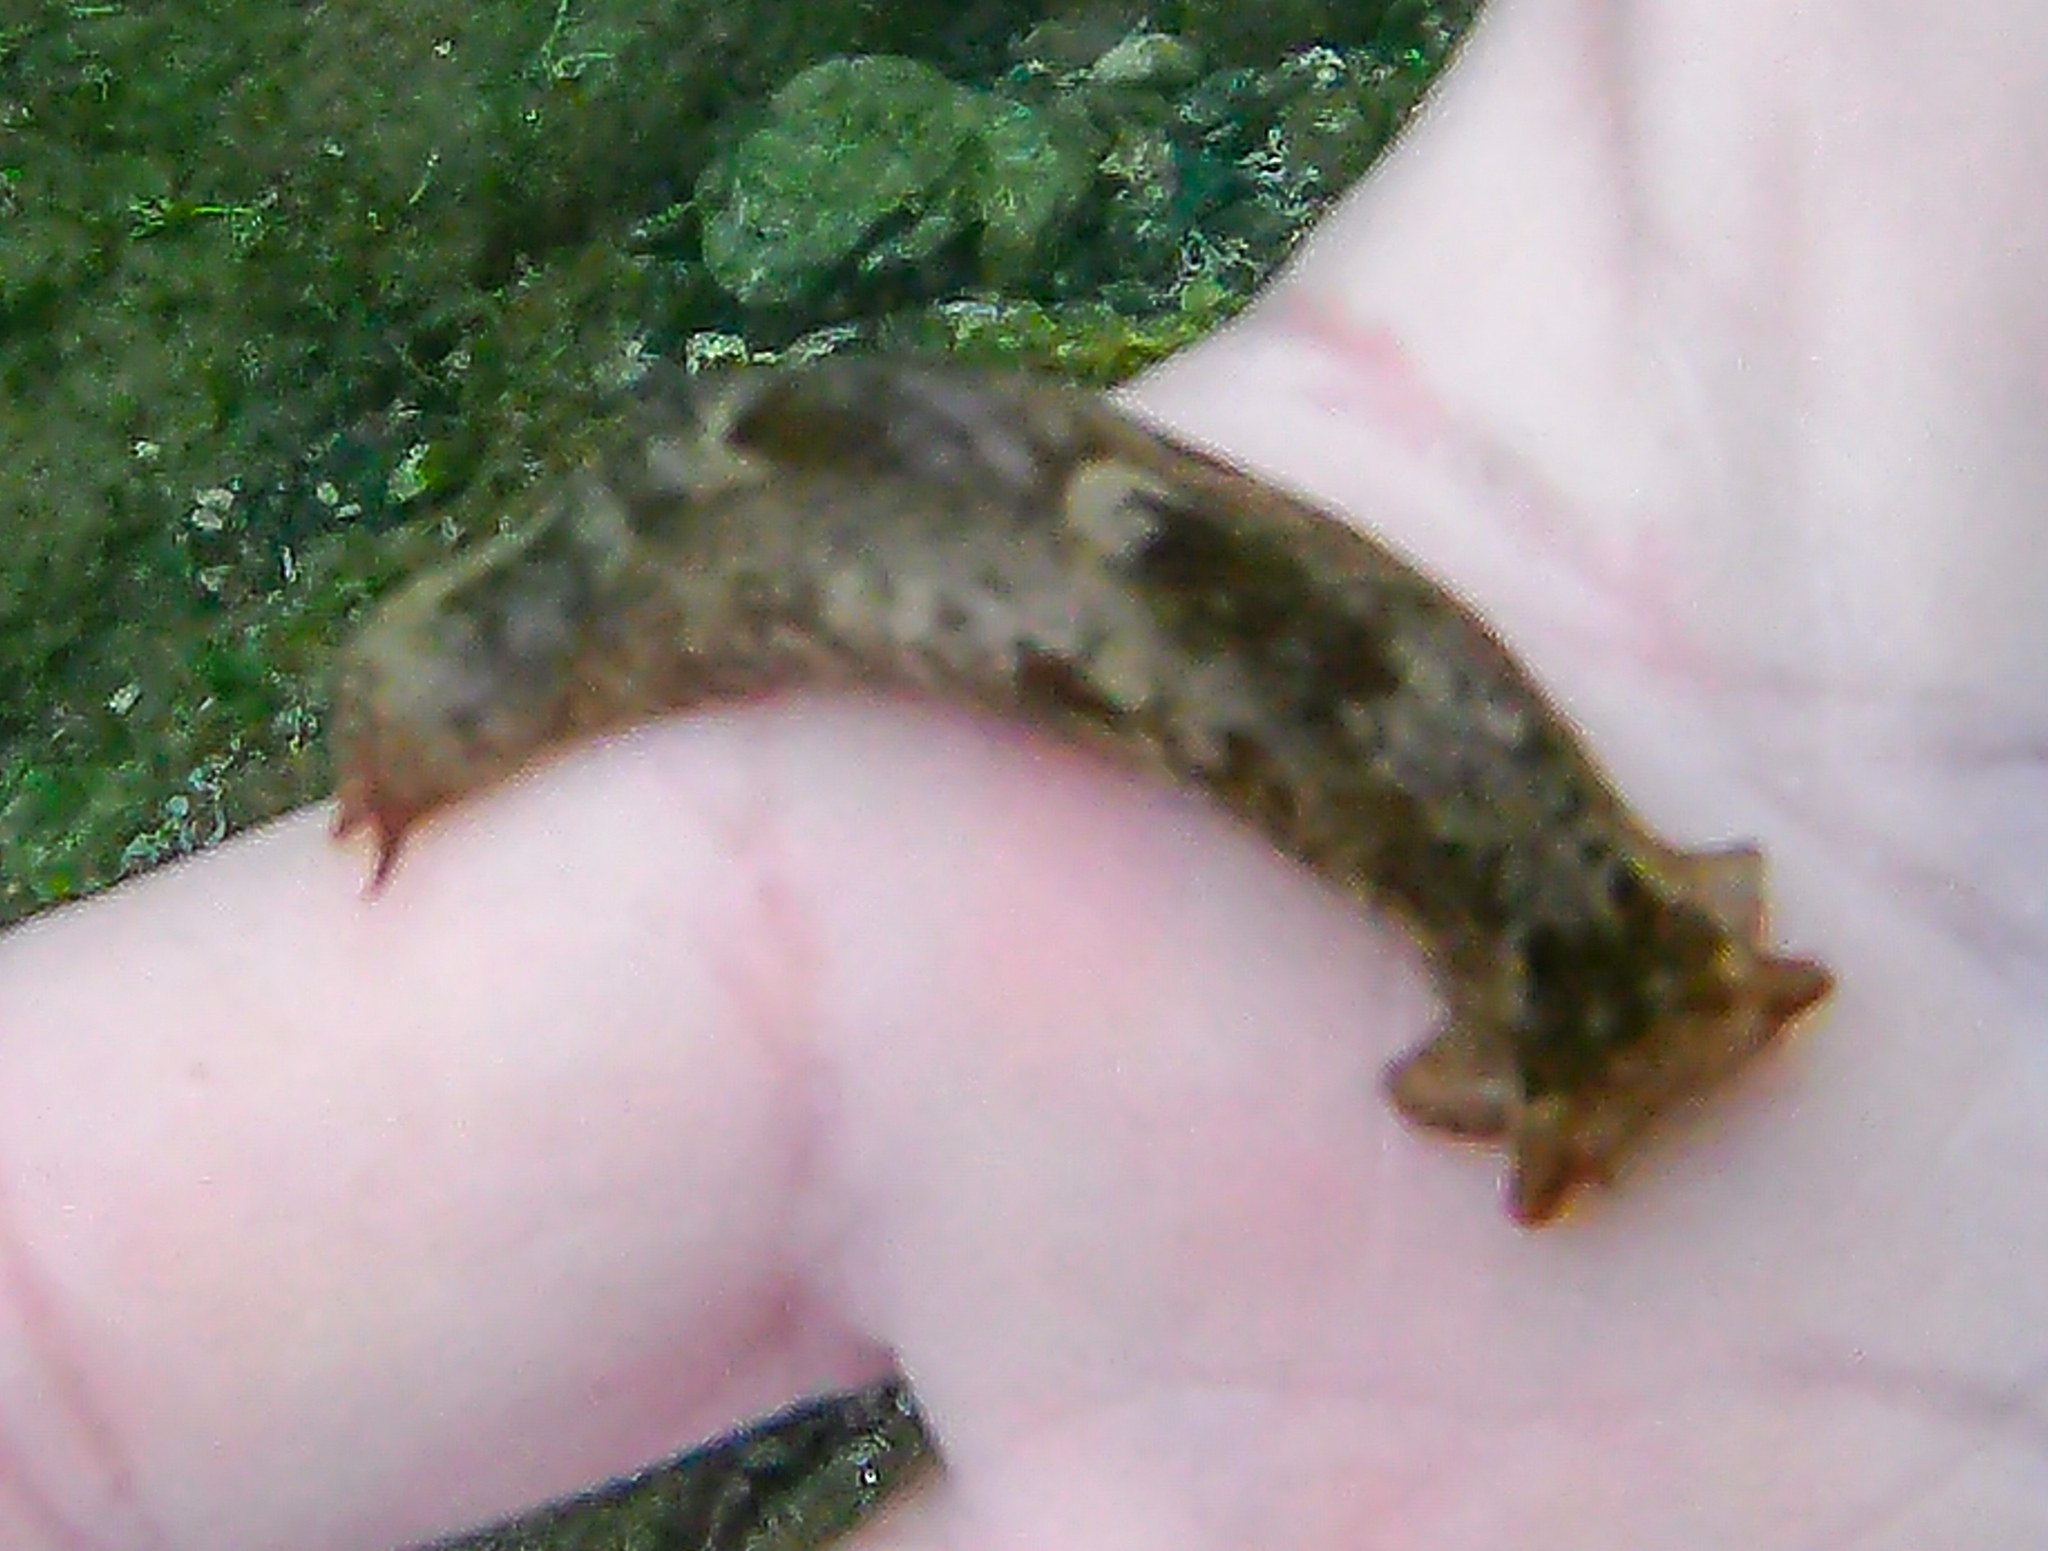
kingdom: Animalia
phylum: Mollusca
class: Gastropoda
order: Cephalaspidea
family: Aglajidae
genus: Navanax
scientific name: Navanax aenigmaticus
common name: Striated aglaja
